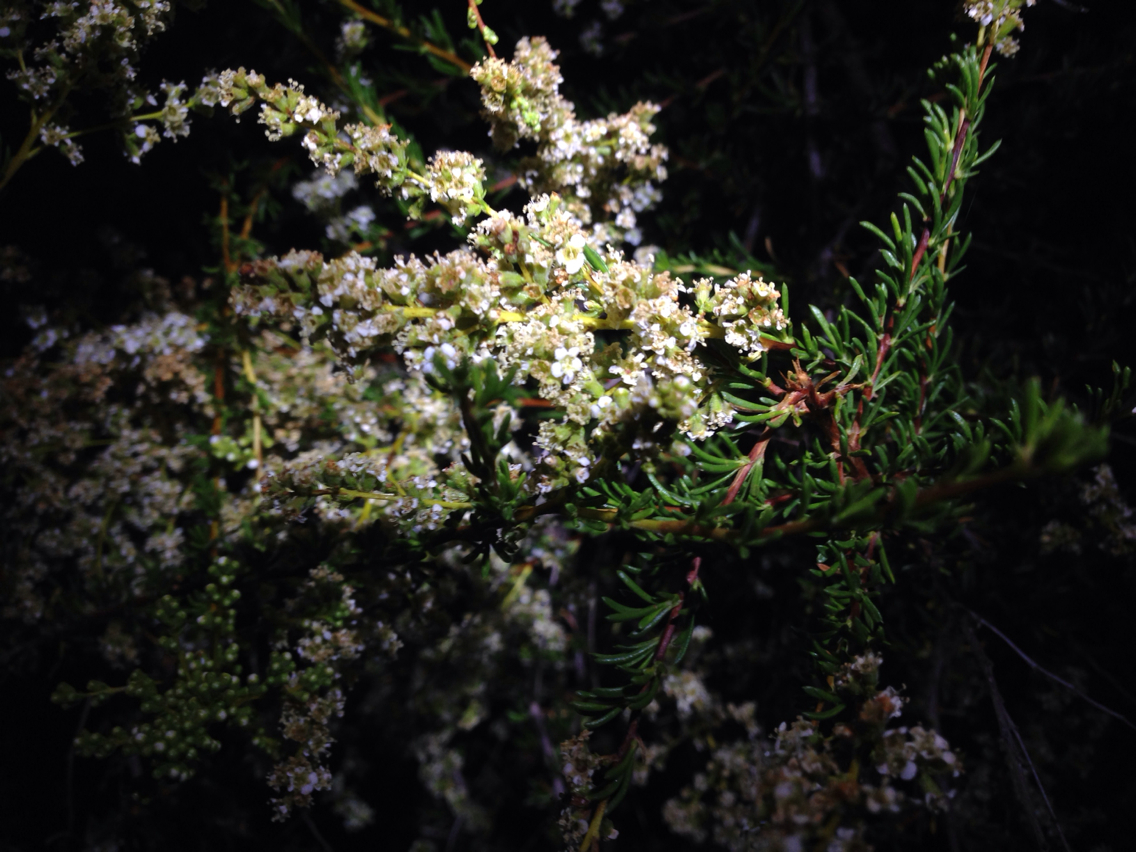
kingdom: Plantae
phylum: Tracheophyta
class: Magnoliopsida
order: Rosales
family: Rosaceae
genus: Adenostoma
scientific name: Adenostoma fasciculatum
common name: Chamise
